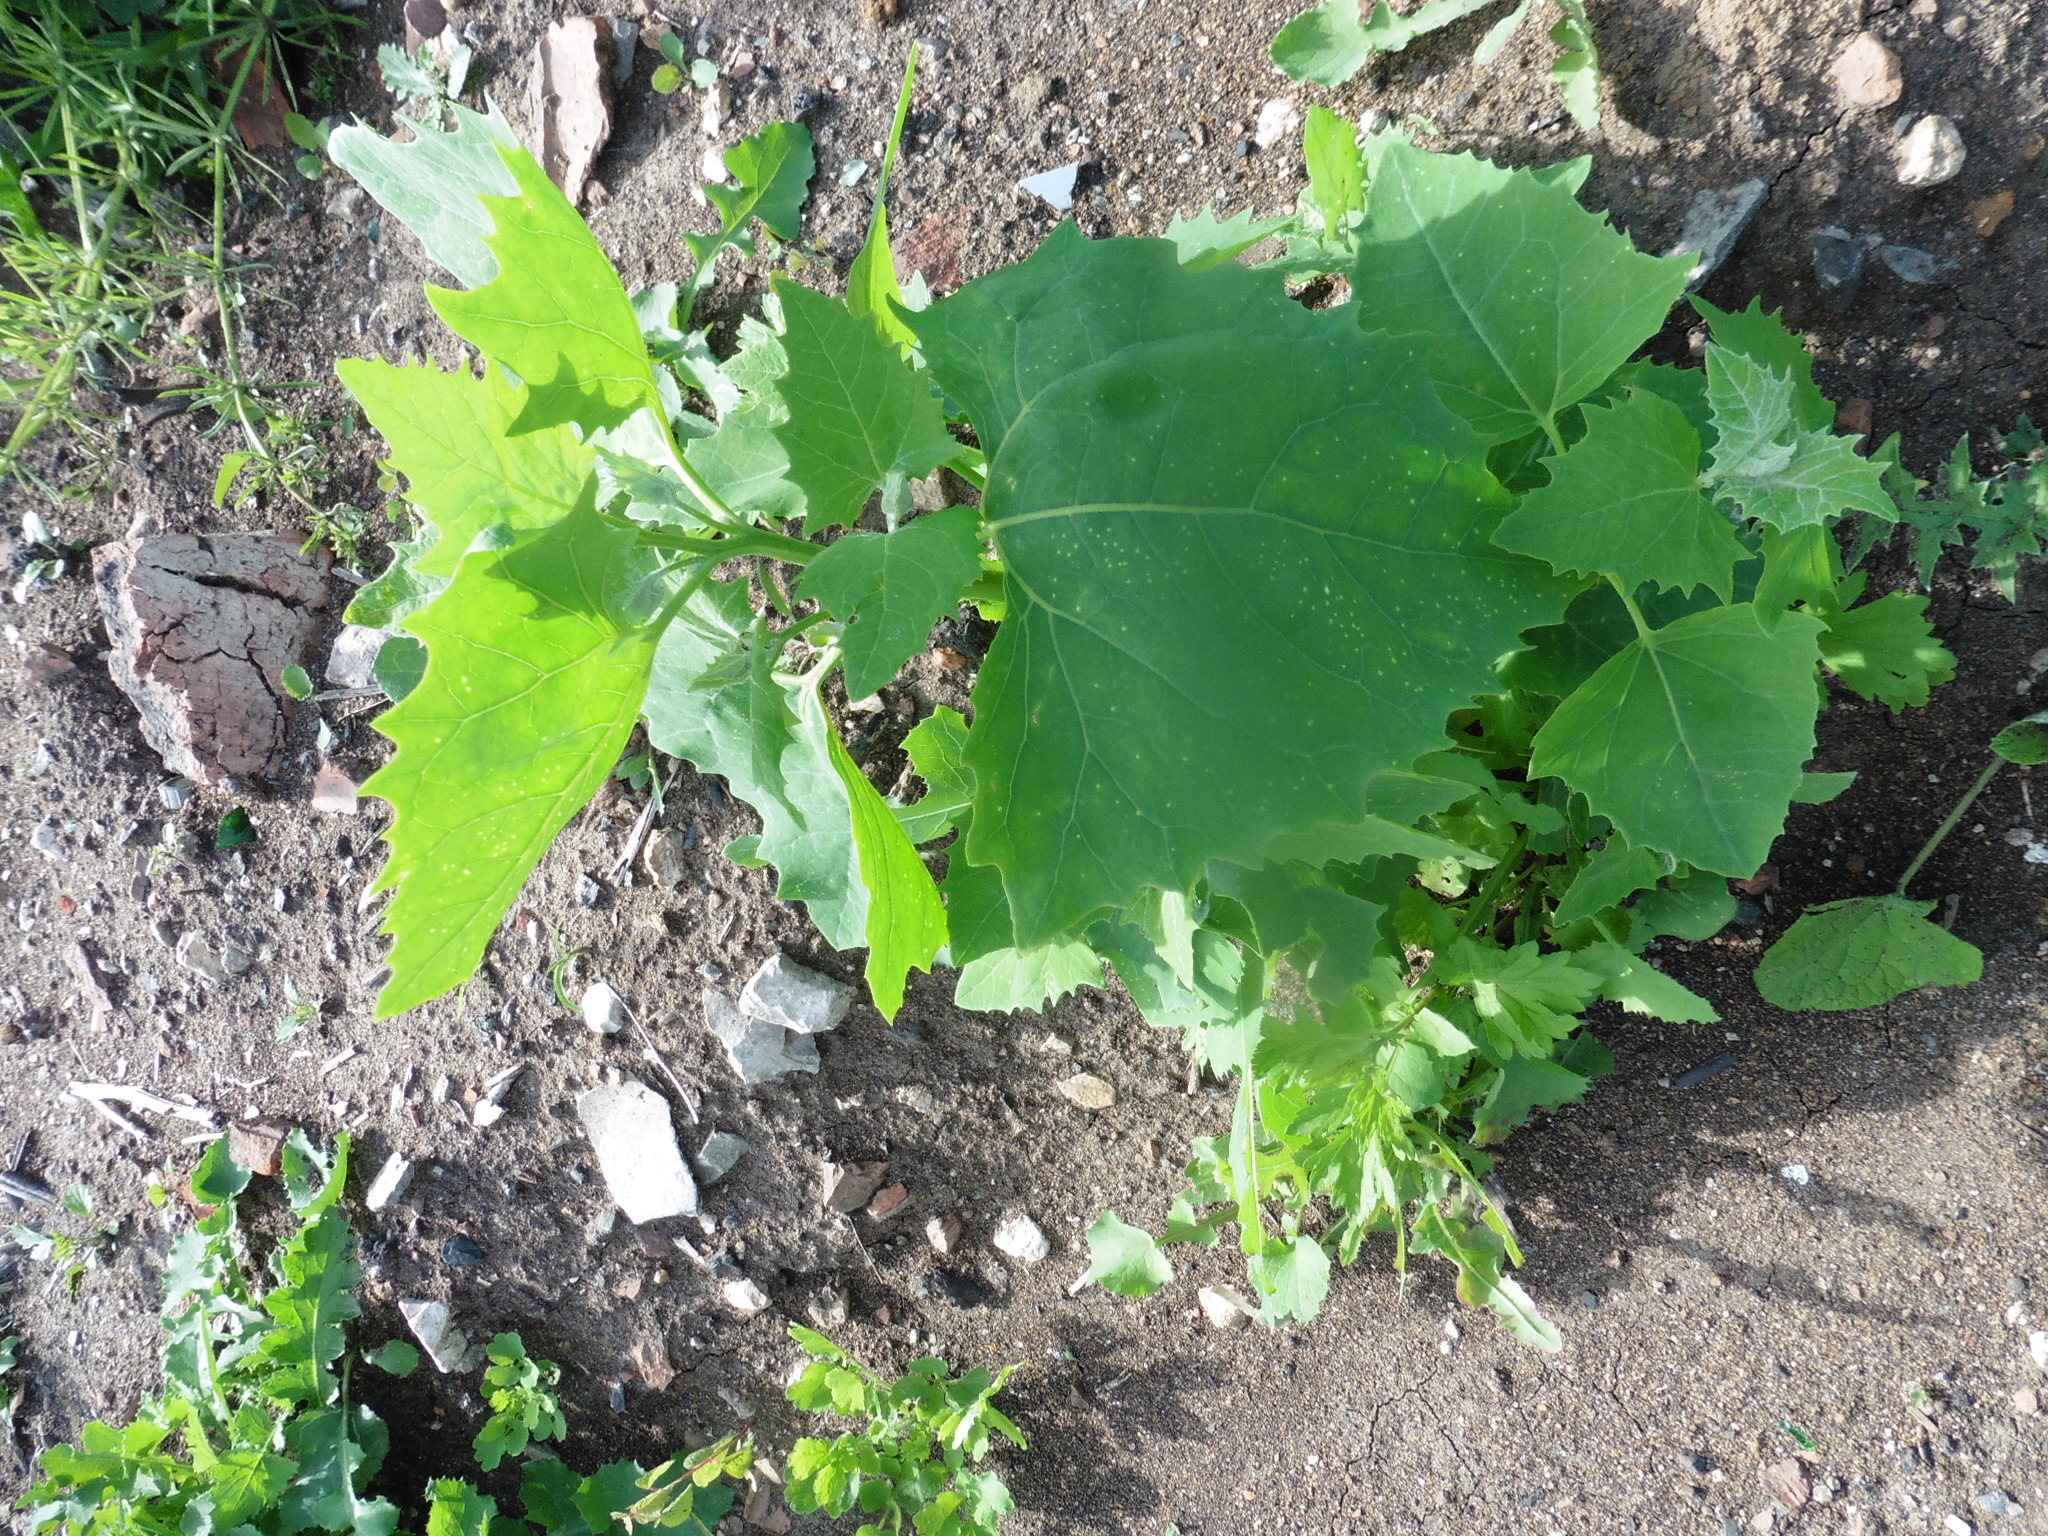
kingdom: Plantae
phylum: Tracheophyta
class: Magnoliopsida
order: Caryophyllales
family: Amaranthaceae
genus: Atriplex
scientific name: Atriplex sagittata
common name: Purple orache
